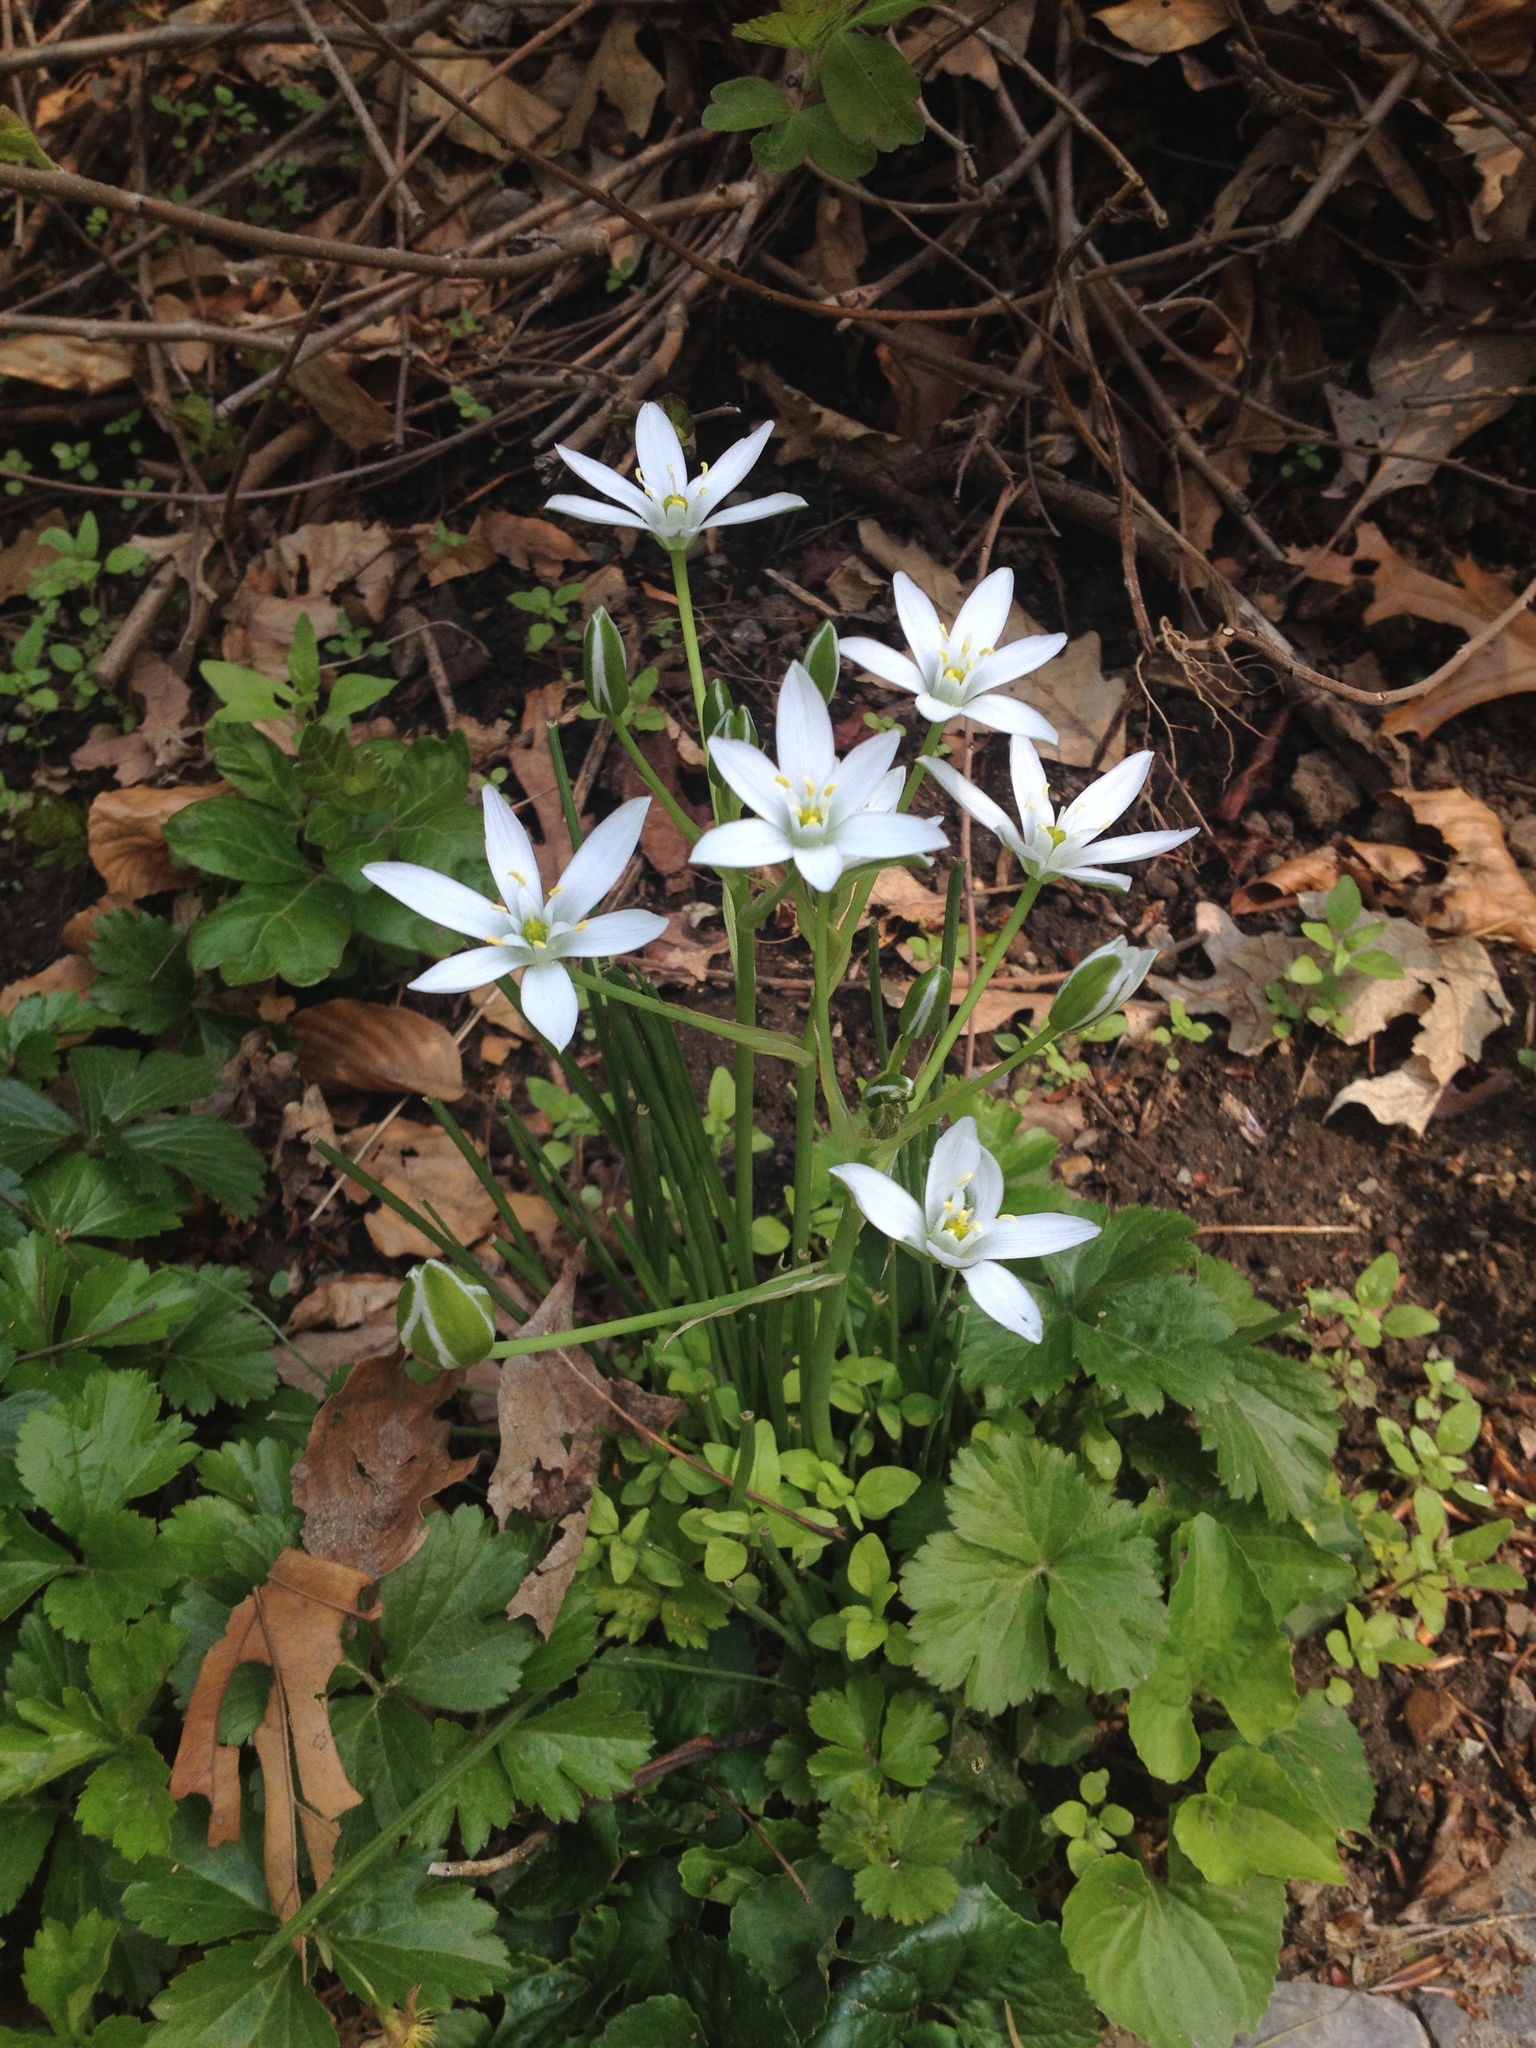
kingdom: Plantae
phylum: Tracheophyta
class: Liliopsida
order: Asparagales
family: Asparagaceae
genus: Ornithogalum
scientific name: Ornithogalum umbellatum
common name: Garden star-of-bethlehem
